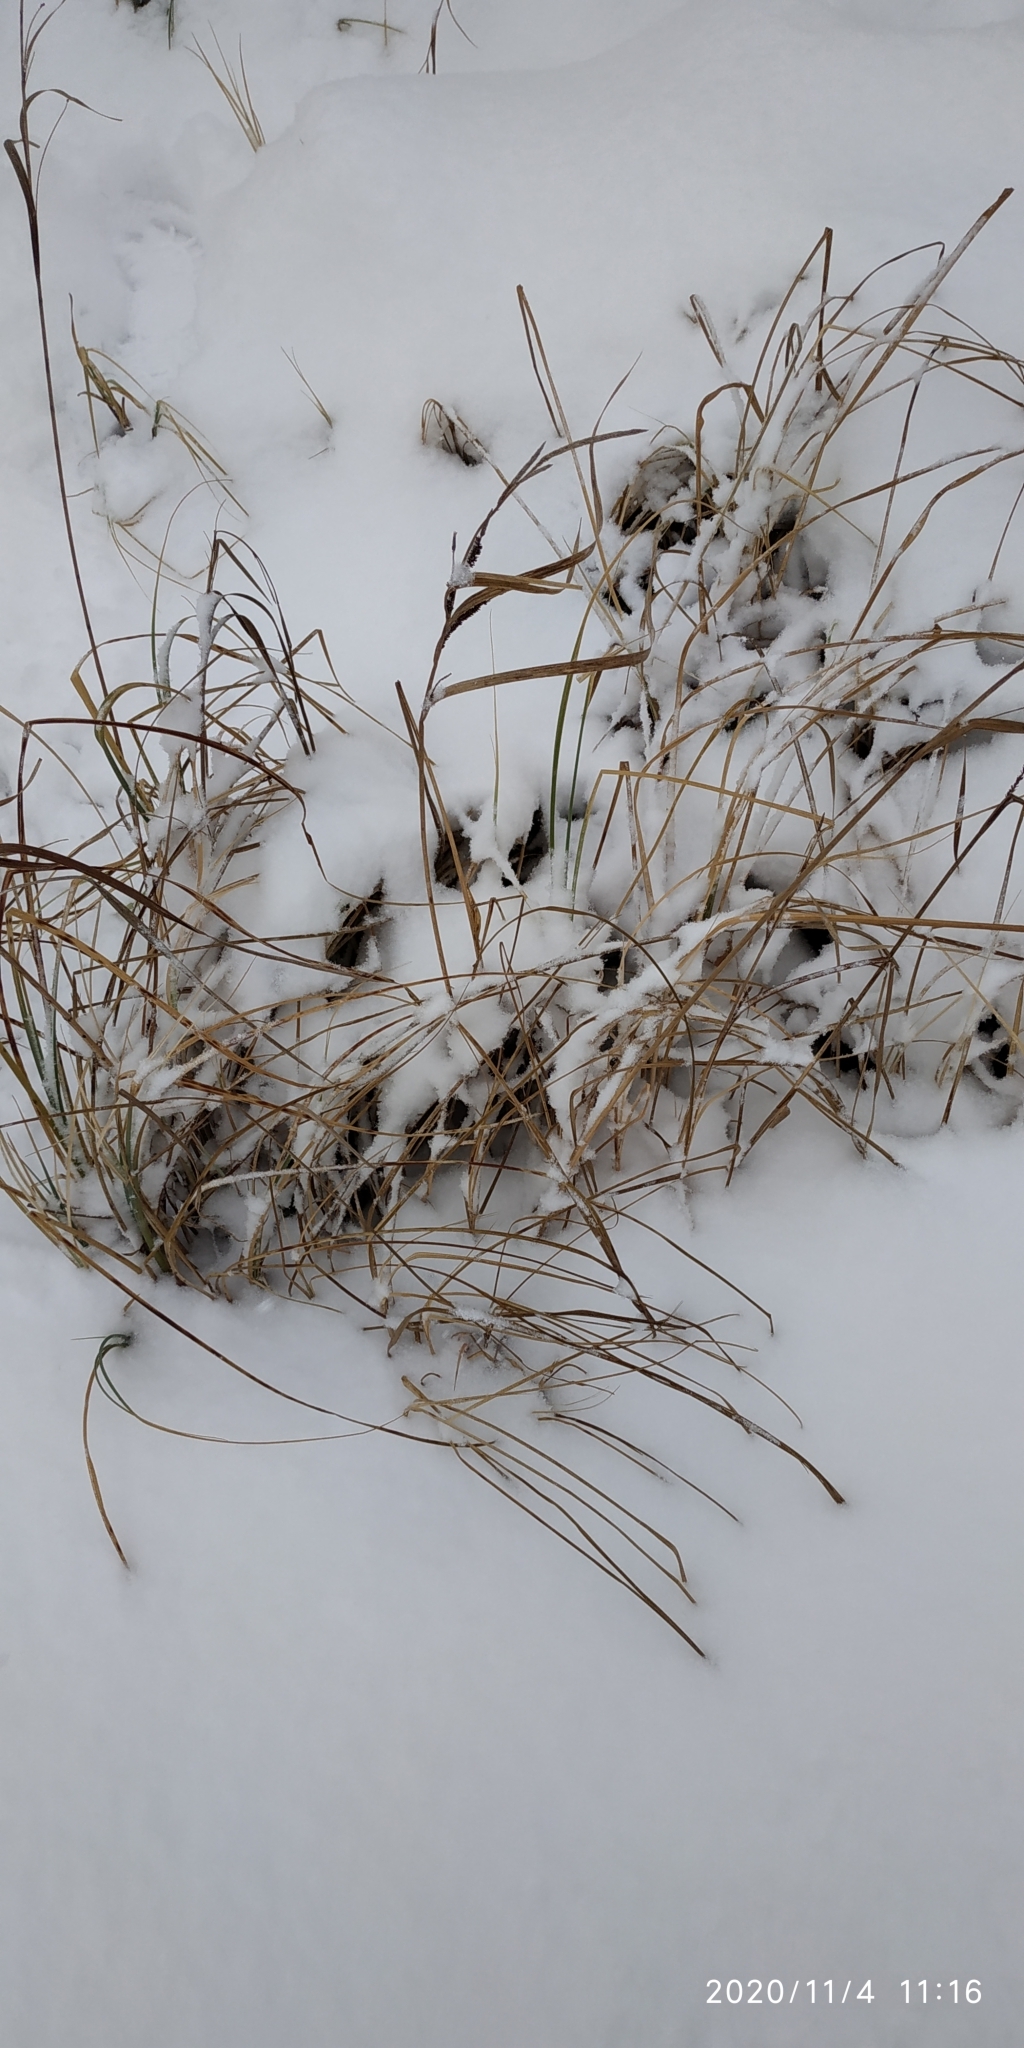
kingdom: Plantae
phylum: Tracheophyta
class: Liliopsida
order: Poales
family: Cyperaceae
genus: Carex
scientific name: Carex aquatilis
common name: Water sedge
